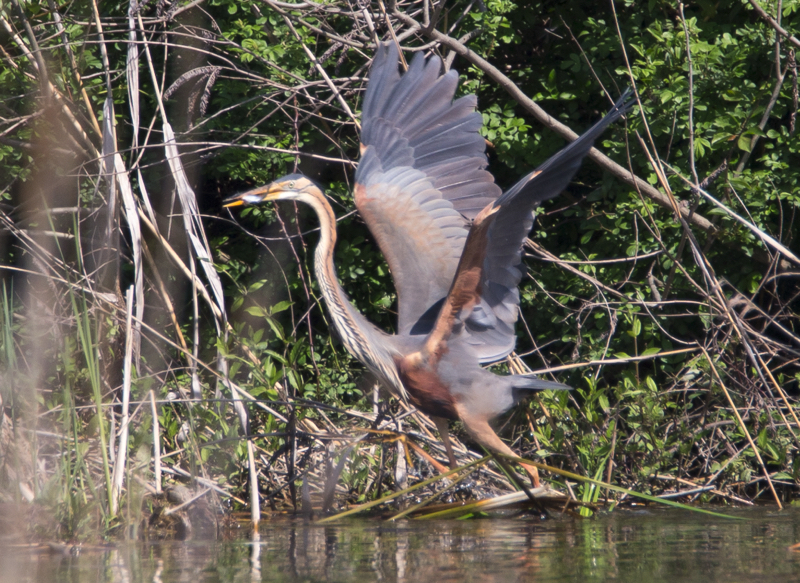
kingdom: Animalia
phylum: Chordata
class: Aves
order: Pelecaniformes
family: Ardeidae
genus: Ardea
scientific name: Ardea purpurea
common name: Purple heron
